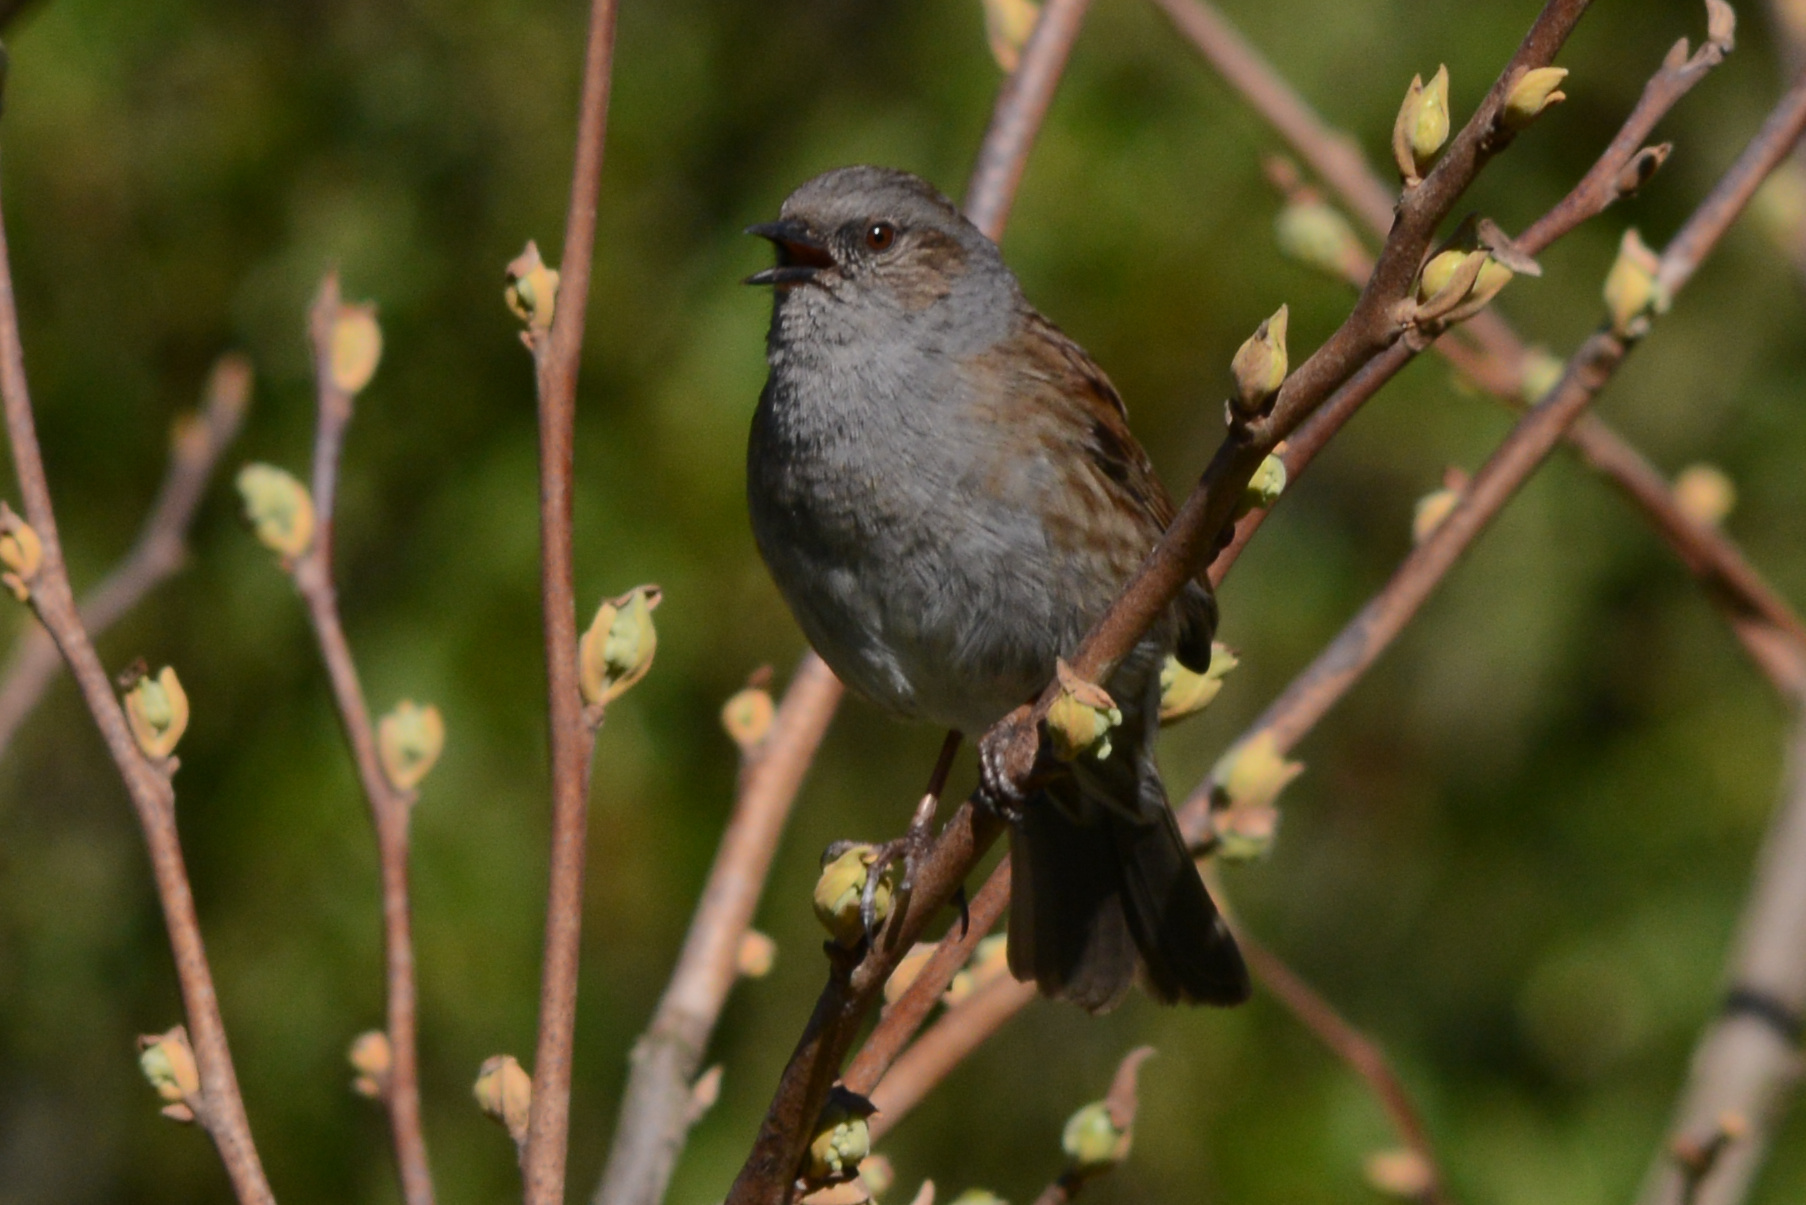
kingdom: Animalia
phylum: Chordata
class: Aves
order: Passeriformes
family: Prunellidae
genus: Prunella
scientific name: Prunella modularis
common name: Dunnock
